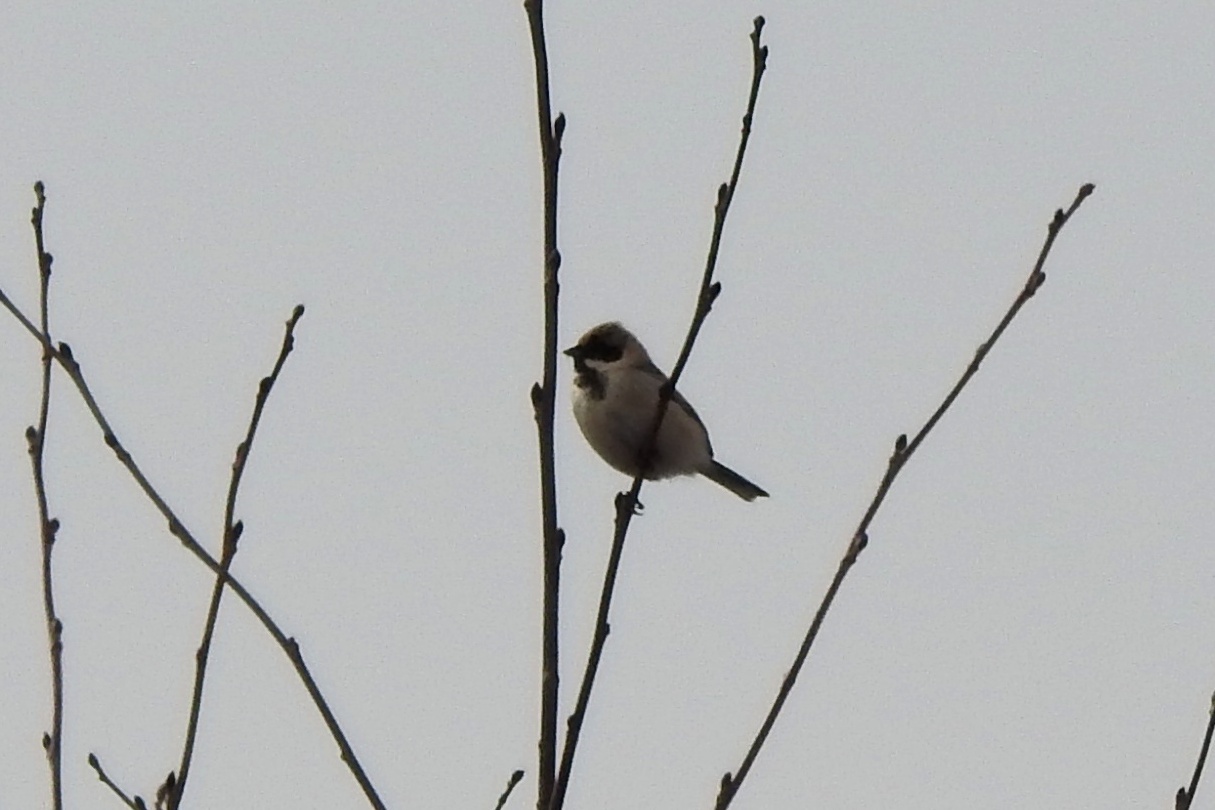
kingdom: Animalia
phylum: Chordata
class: Aves
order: Passeriformes
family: Emberizidae
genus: Emberiza
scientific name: Emberiza pallasi
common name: Pallas's reed bunting
